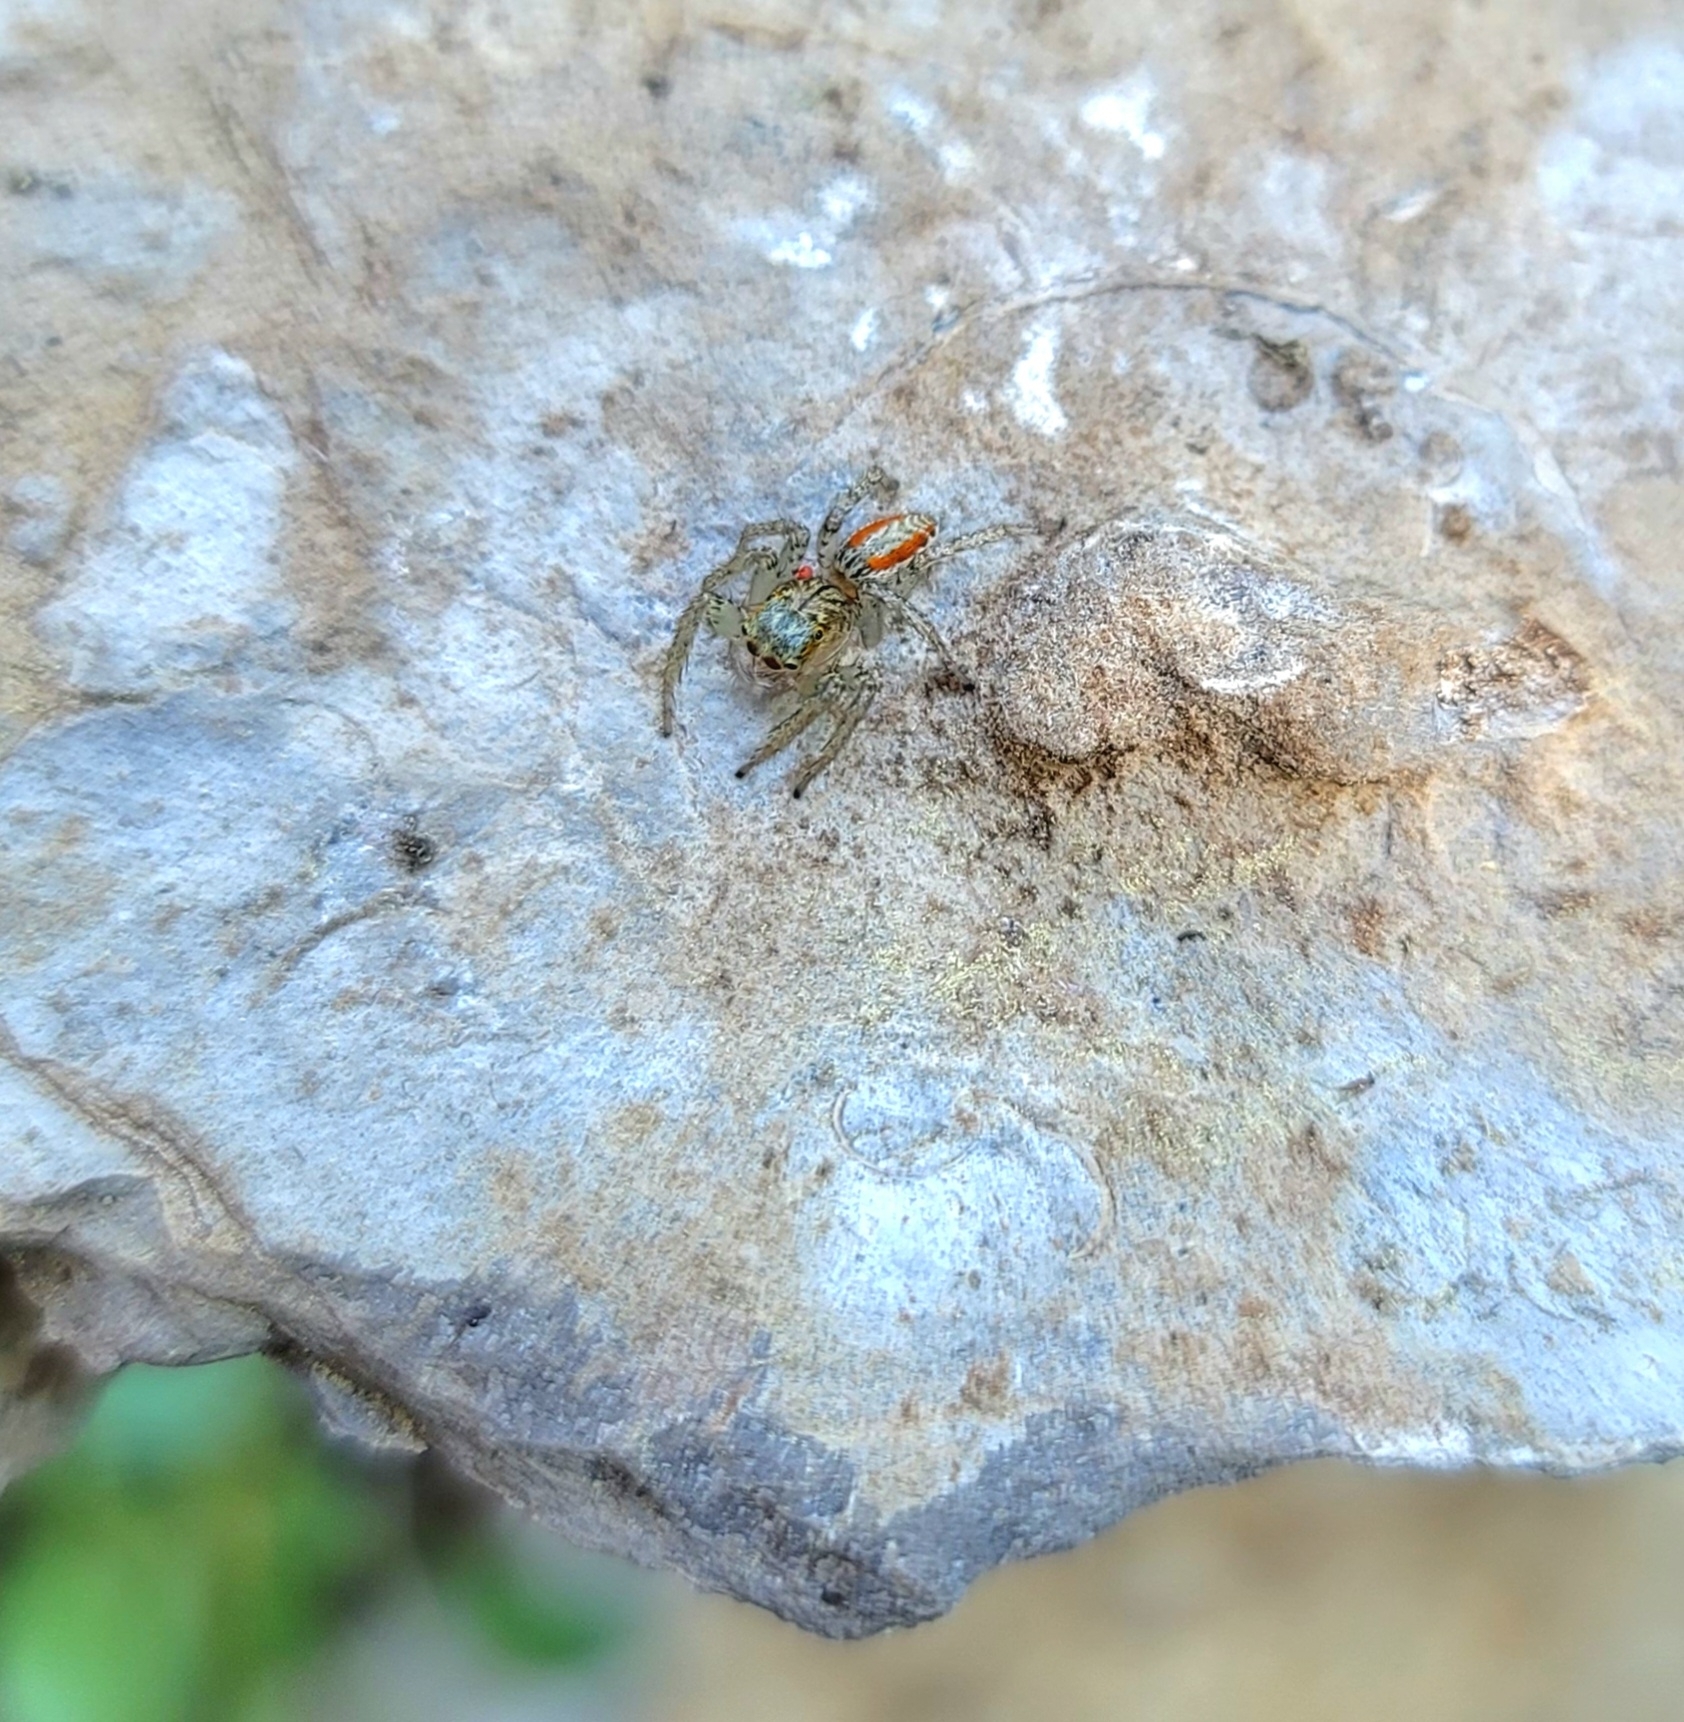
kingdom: Animalia
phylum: Arthropoda
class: Arachnida
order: Araneae
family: Salticidae
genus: Maevia
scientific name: Maevia inclemens
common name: Dimorphic jumper
